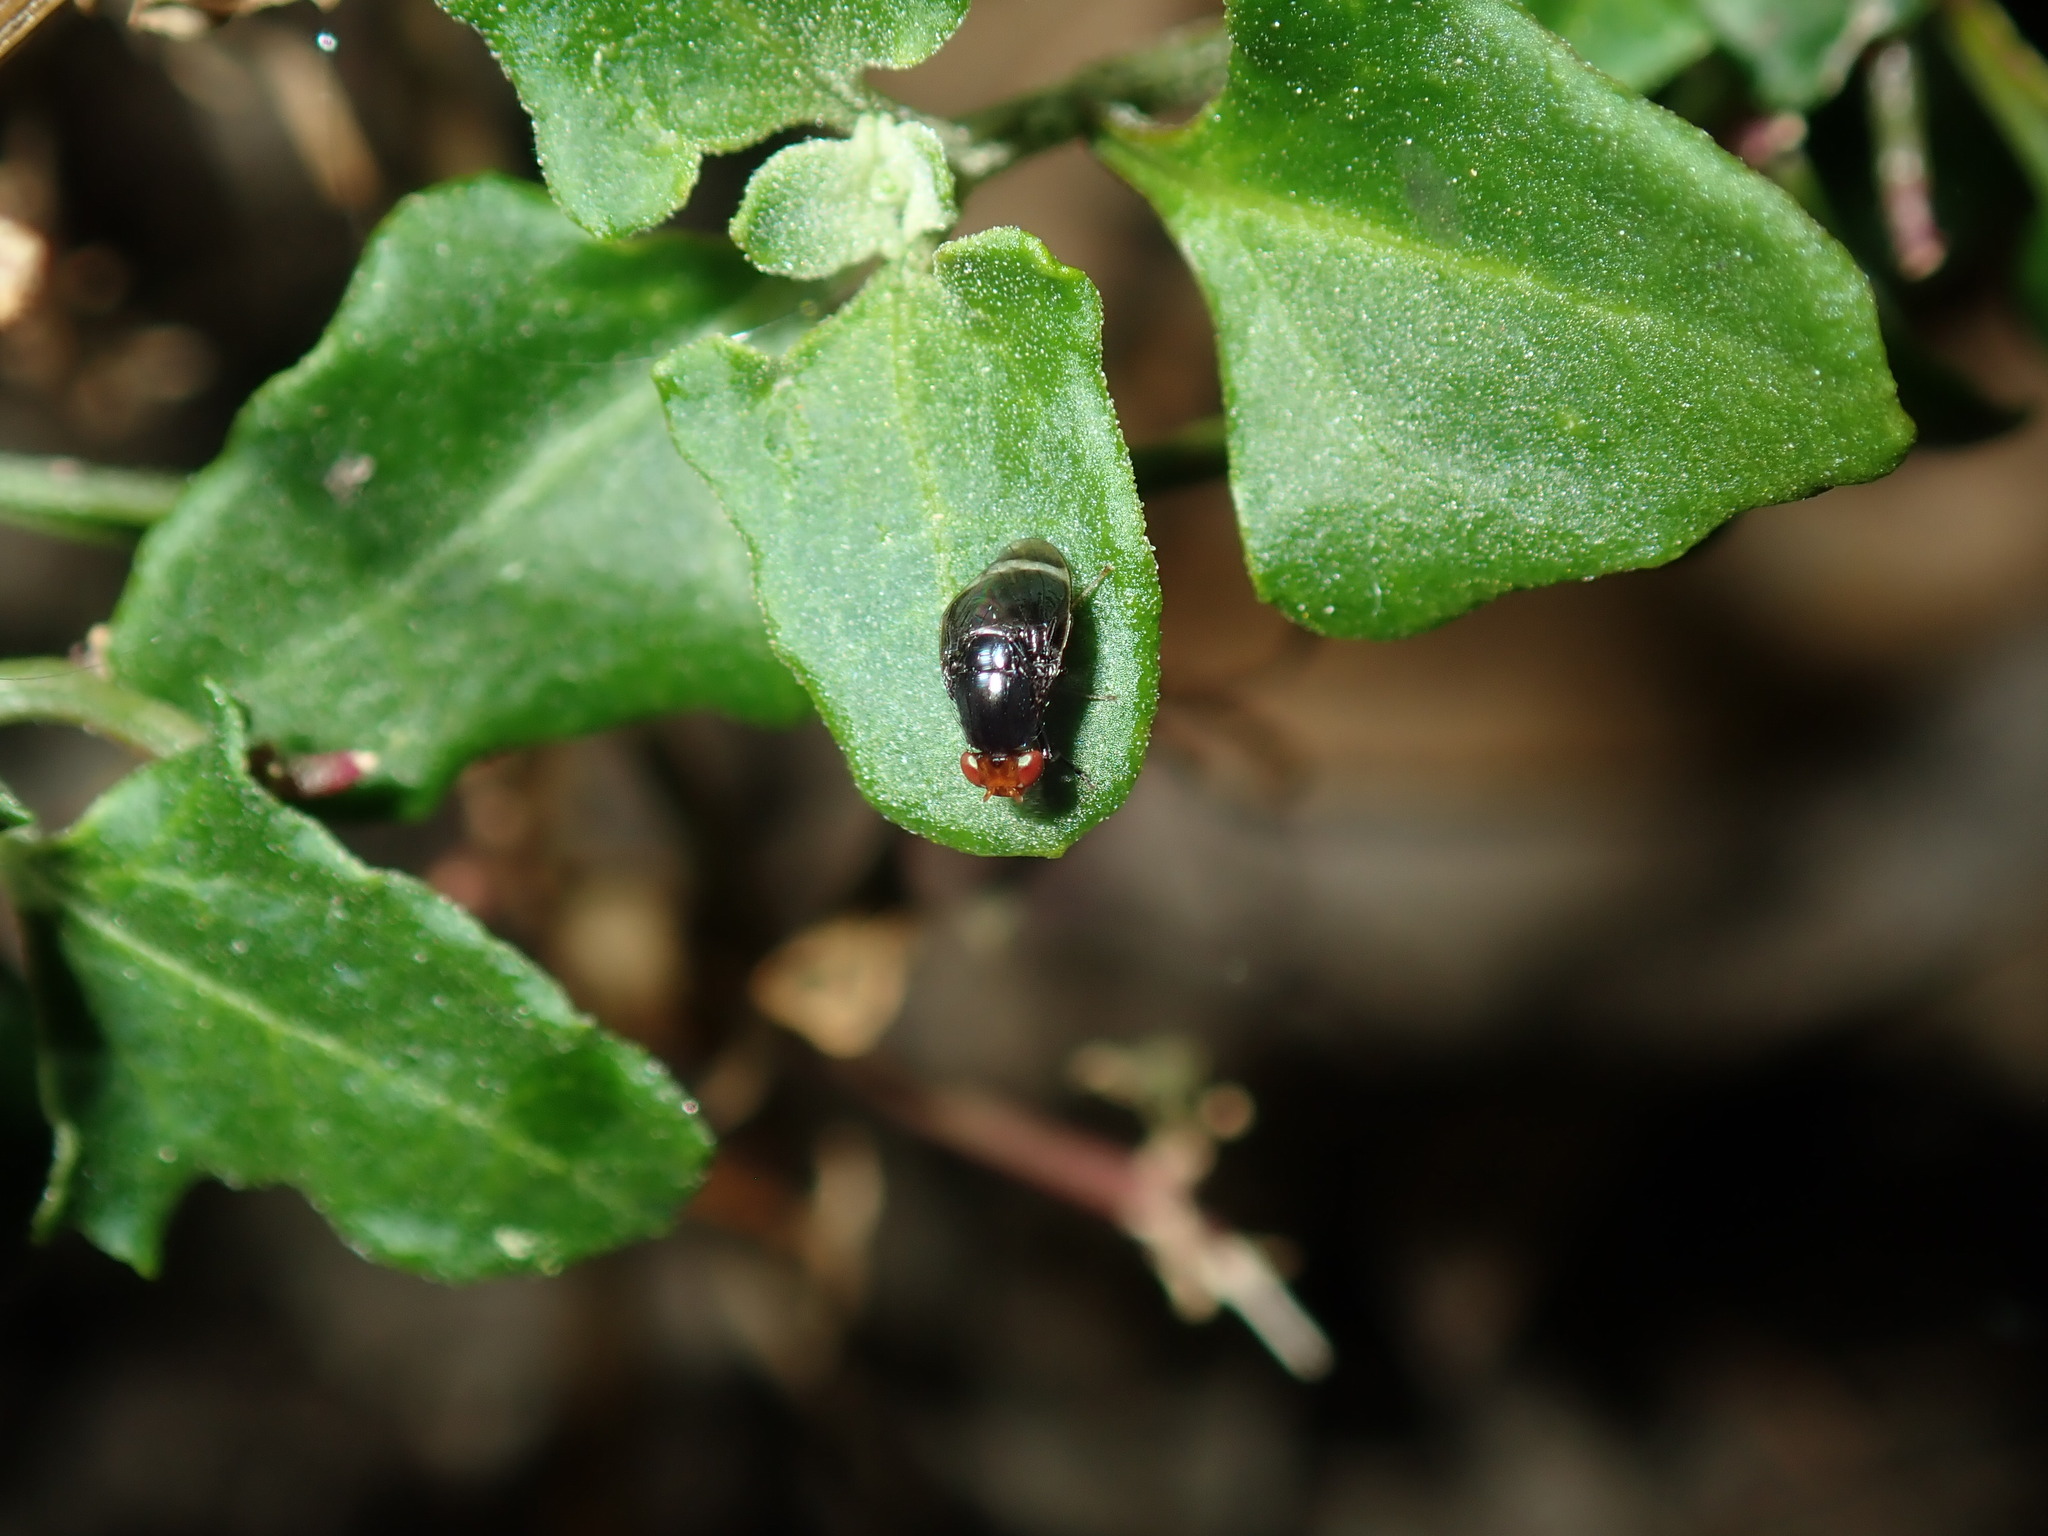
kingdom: Animalia
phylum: Arthropoda
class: Insecta
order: Diptera
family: Lauxaniidae
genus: Depressa
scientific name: Depressa albicosta
